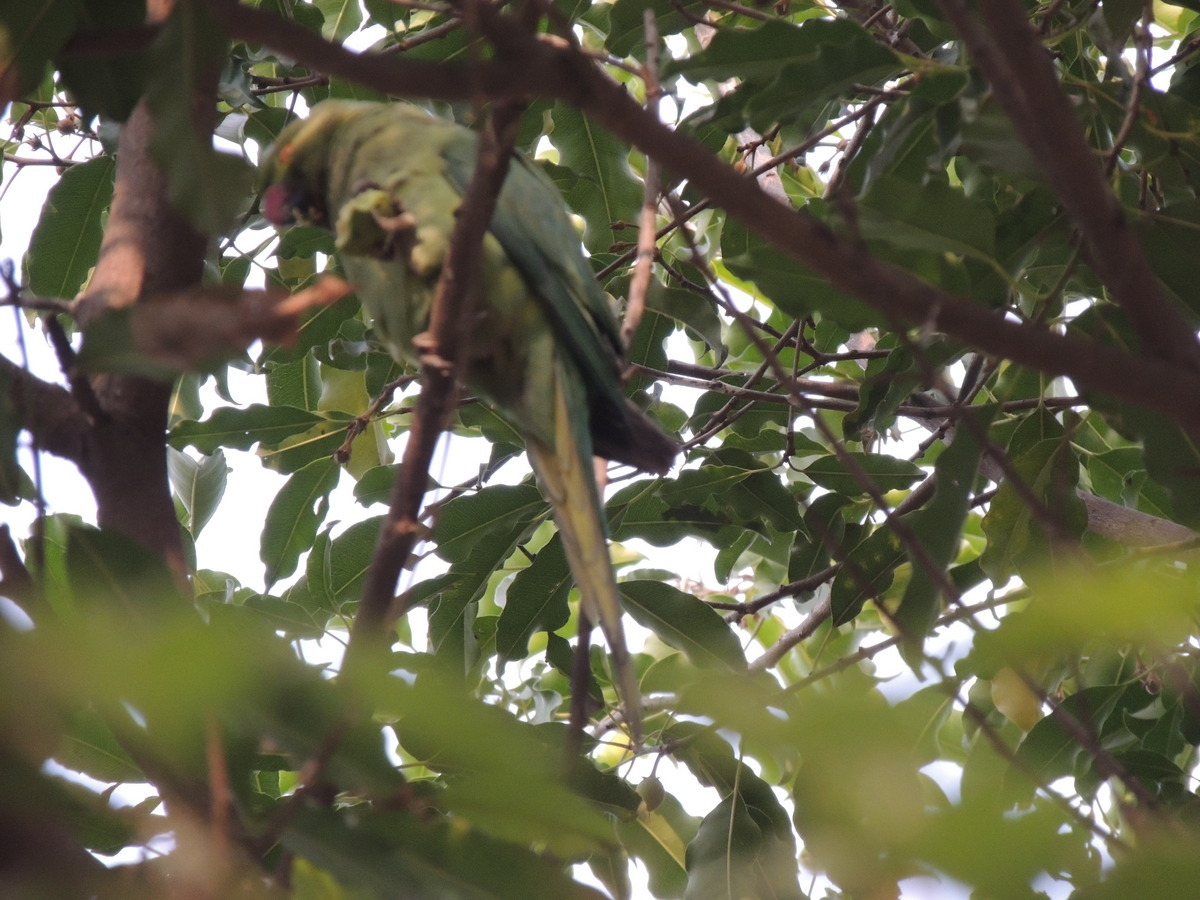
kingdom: Animalia
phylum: Chordata
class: Aves
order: Psittaciformes
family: Psittacidae
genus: Psittacula
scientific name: Psittacula krameri
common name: Rose-ringed parakeet
